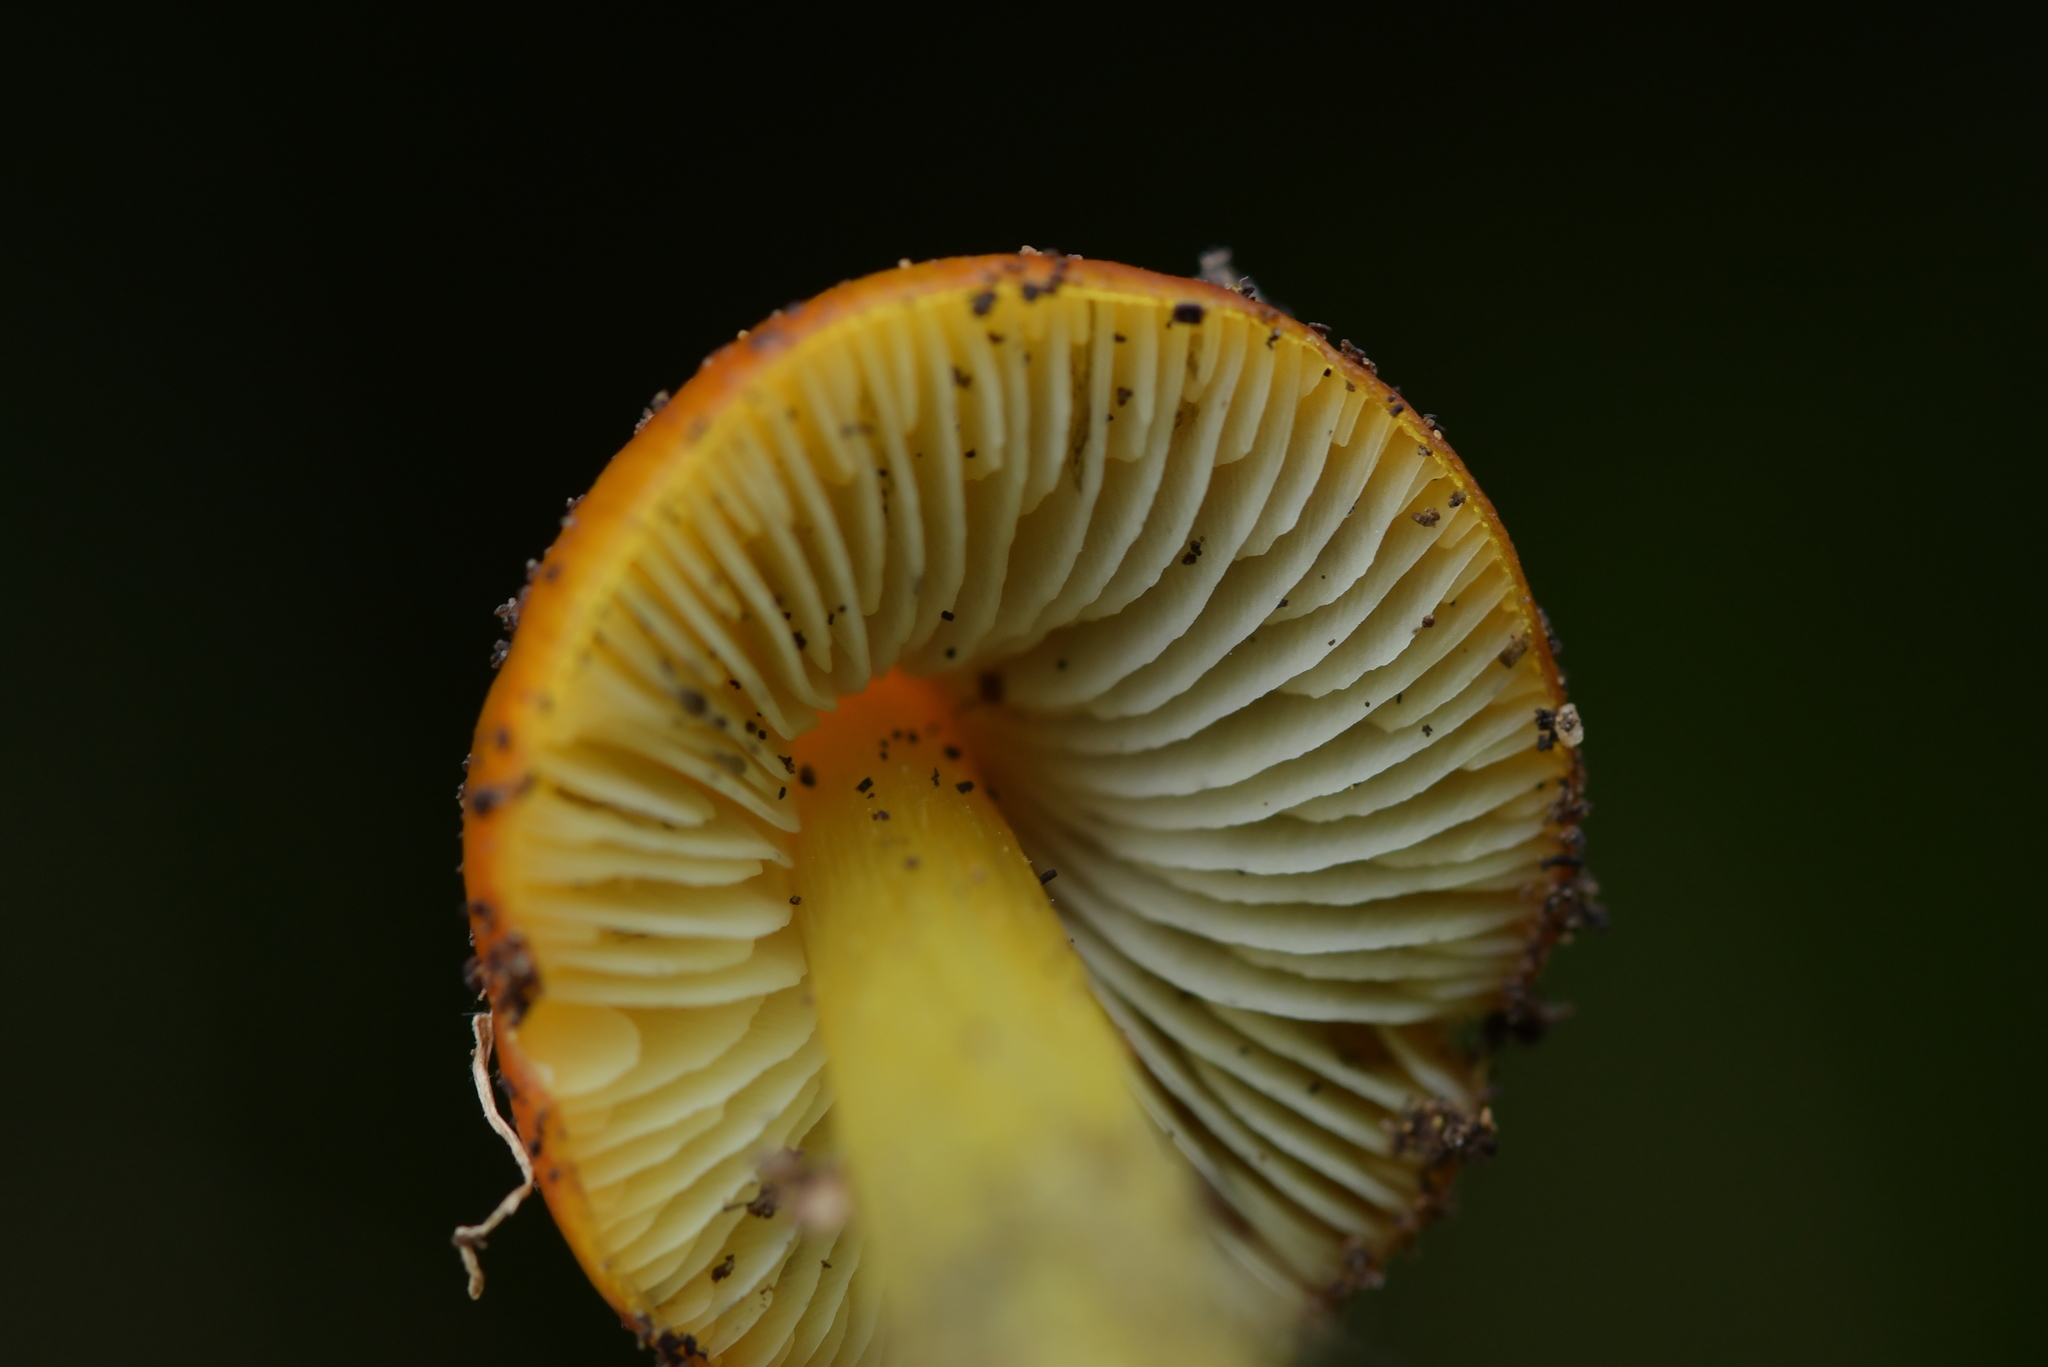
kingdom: Fungi
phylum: Basidiomycota
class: Agaricomycetes
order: Agaricales
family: Hygrophoraceae
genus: Hygrocybe
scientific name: Hygrocybe conica
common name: Blackening wax-cap
